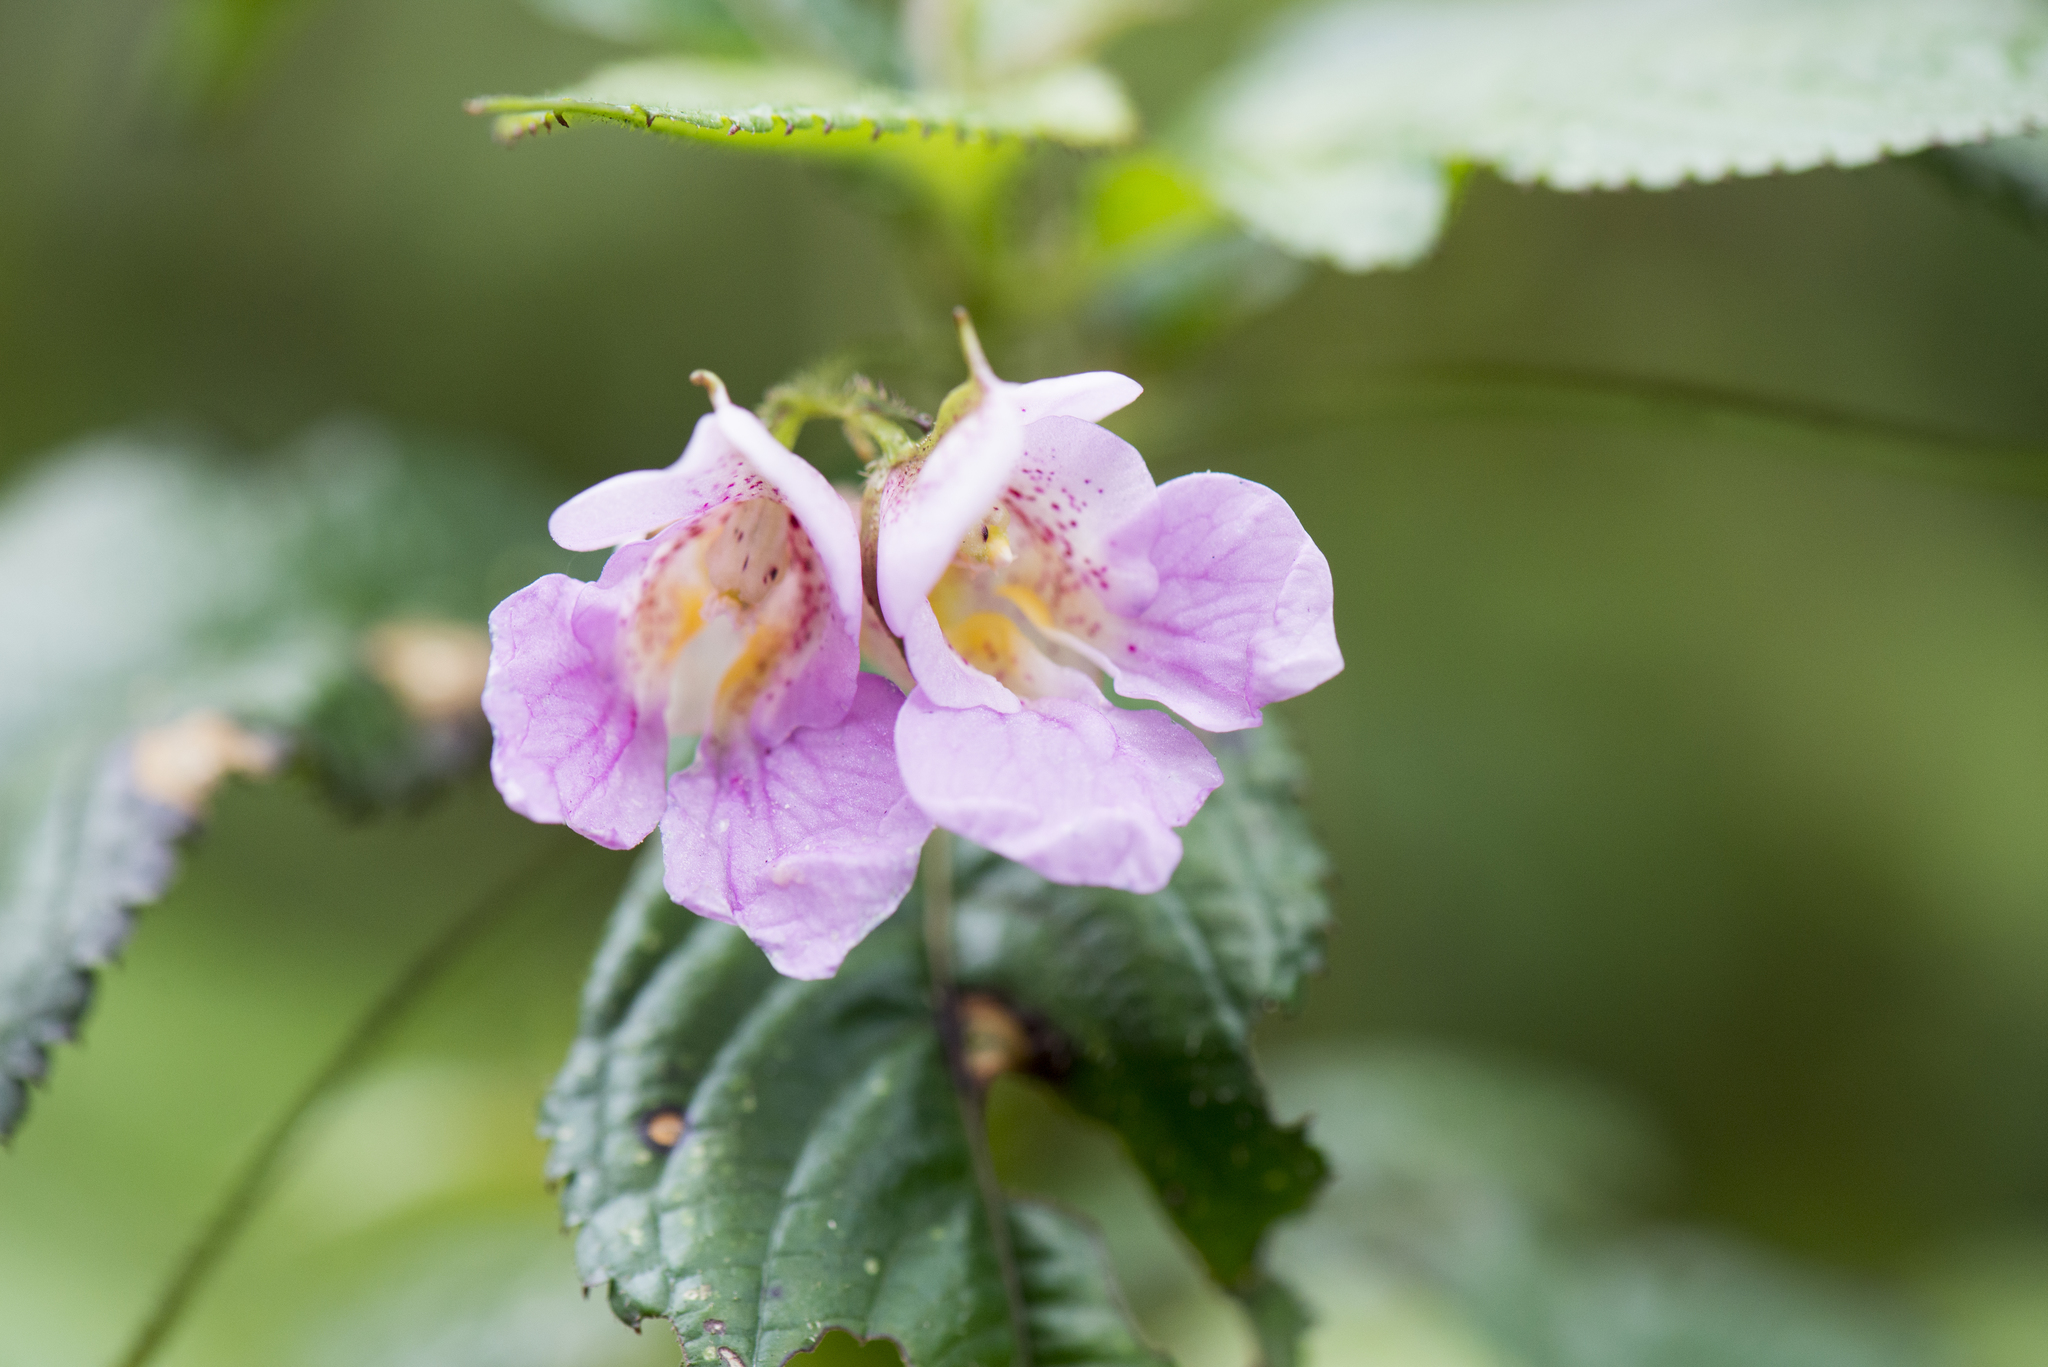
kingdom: Plantae
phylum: Tracheophyta
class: Magnoliopsida
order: Ericales
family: Balsaminaceae
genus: Impatiens
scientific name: Impatiens uniflora
